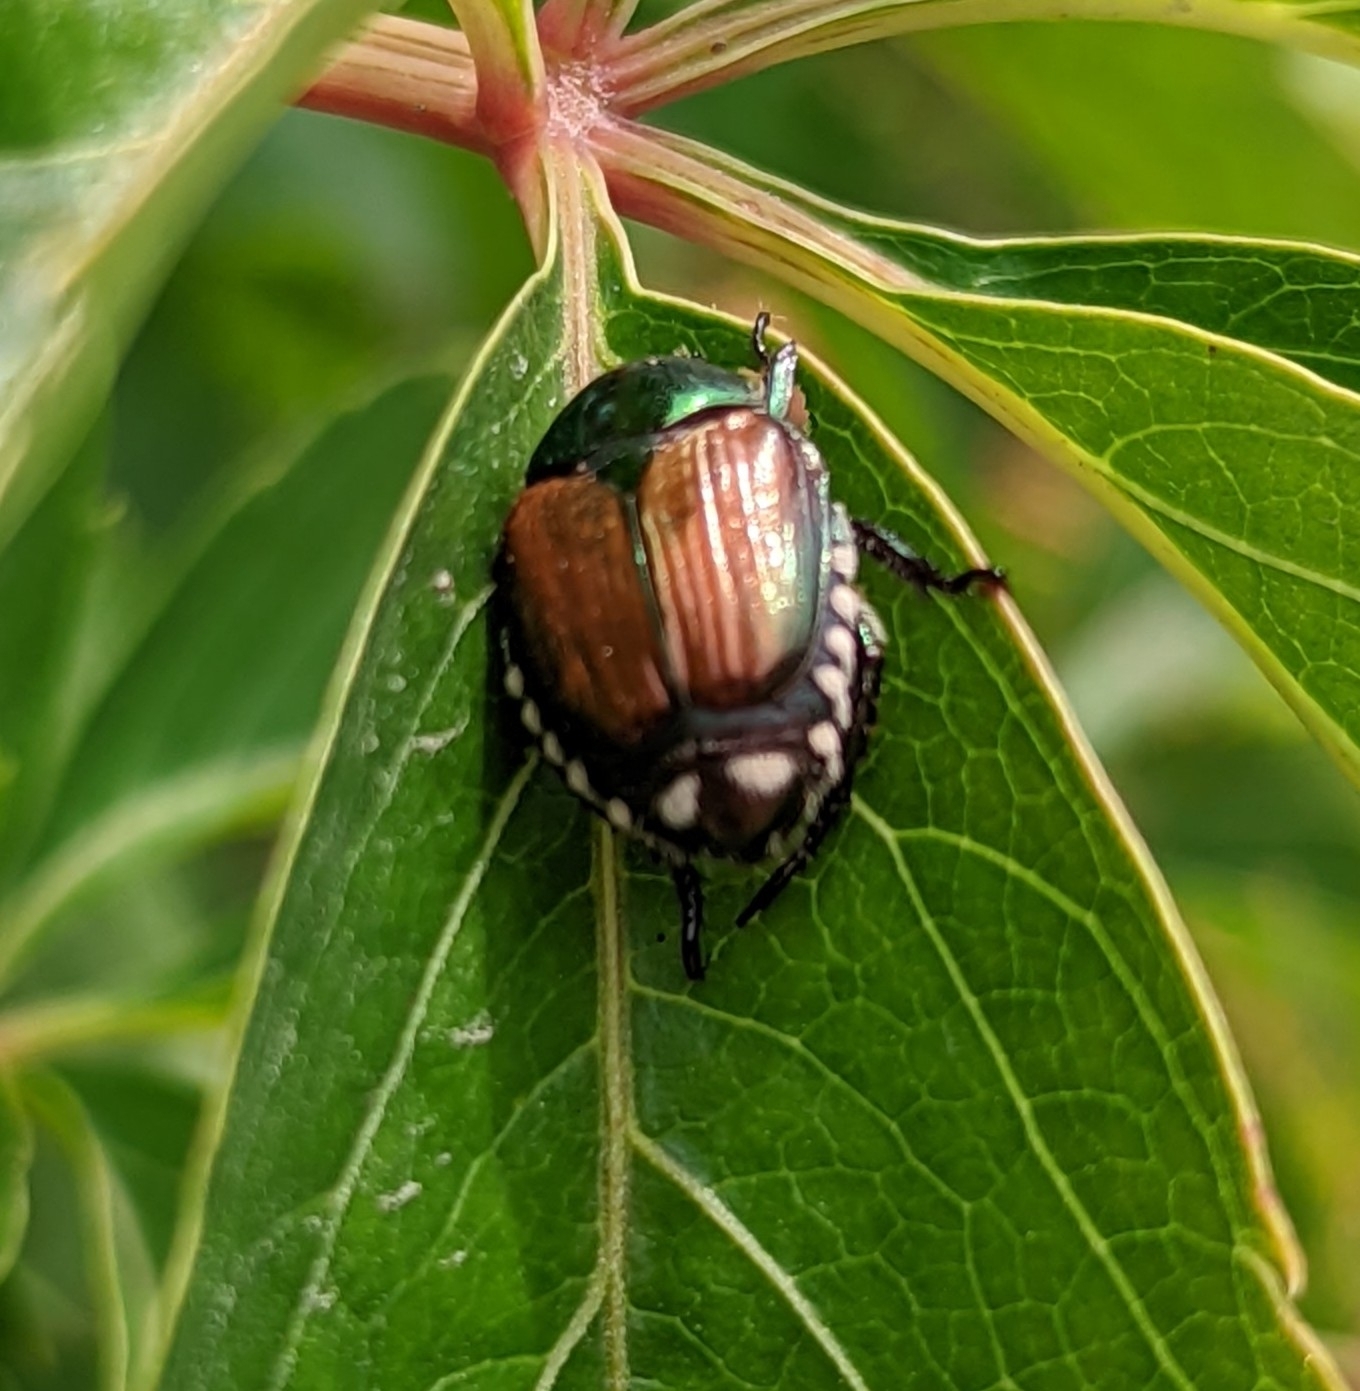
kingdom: Animalia
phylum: Arthropoda
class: Insecta
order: Coleoptera
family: Scarabaeidae
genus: Popillia
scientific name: Popillia japonica
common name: Japanese beetle
